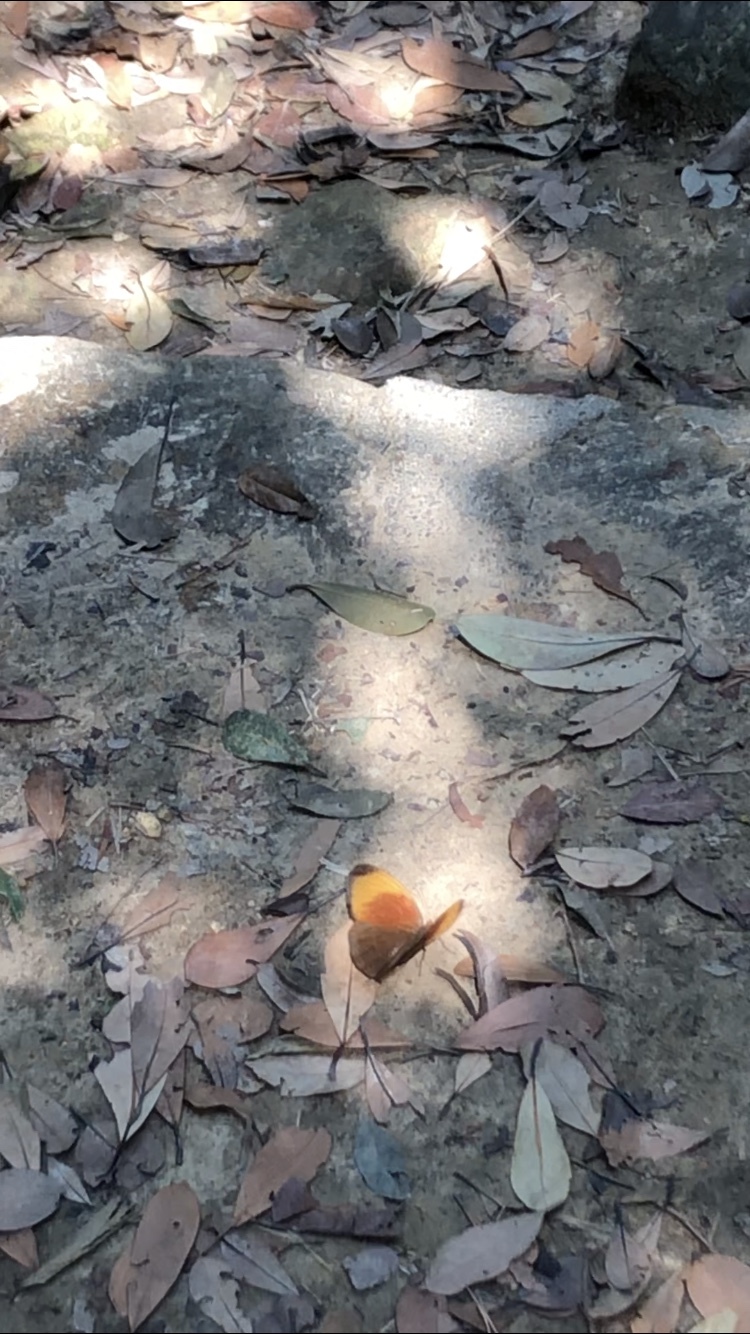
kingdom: Animalia
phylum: Arthropoda
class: Insecta
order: Lepidoptera
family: Nymphalidae
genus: Faunis
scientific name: Faunis eumeus
